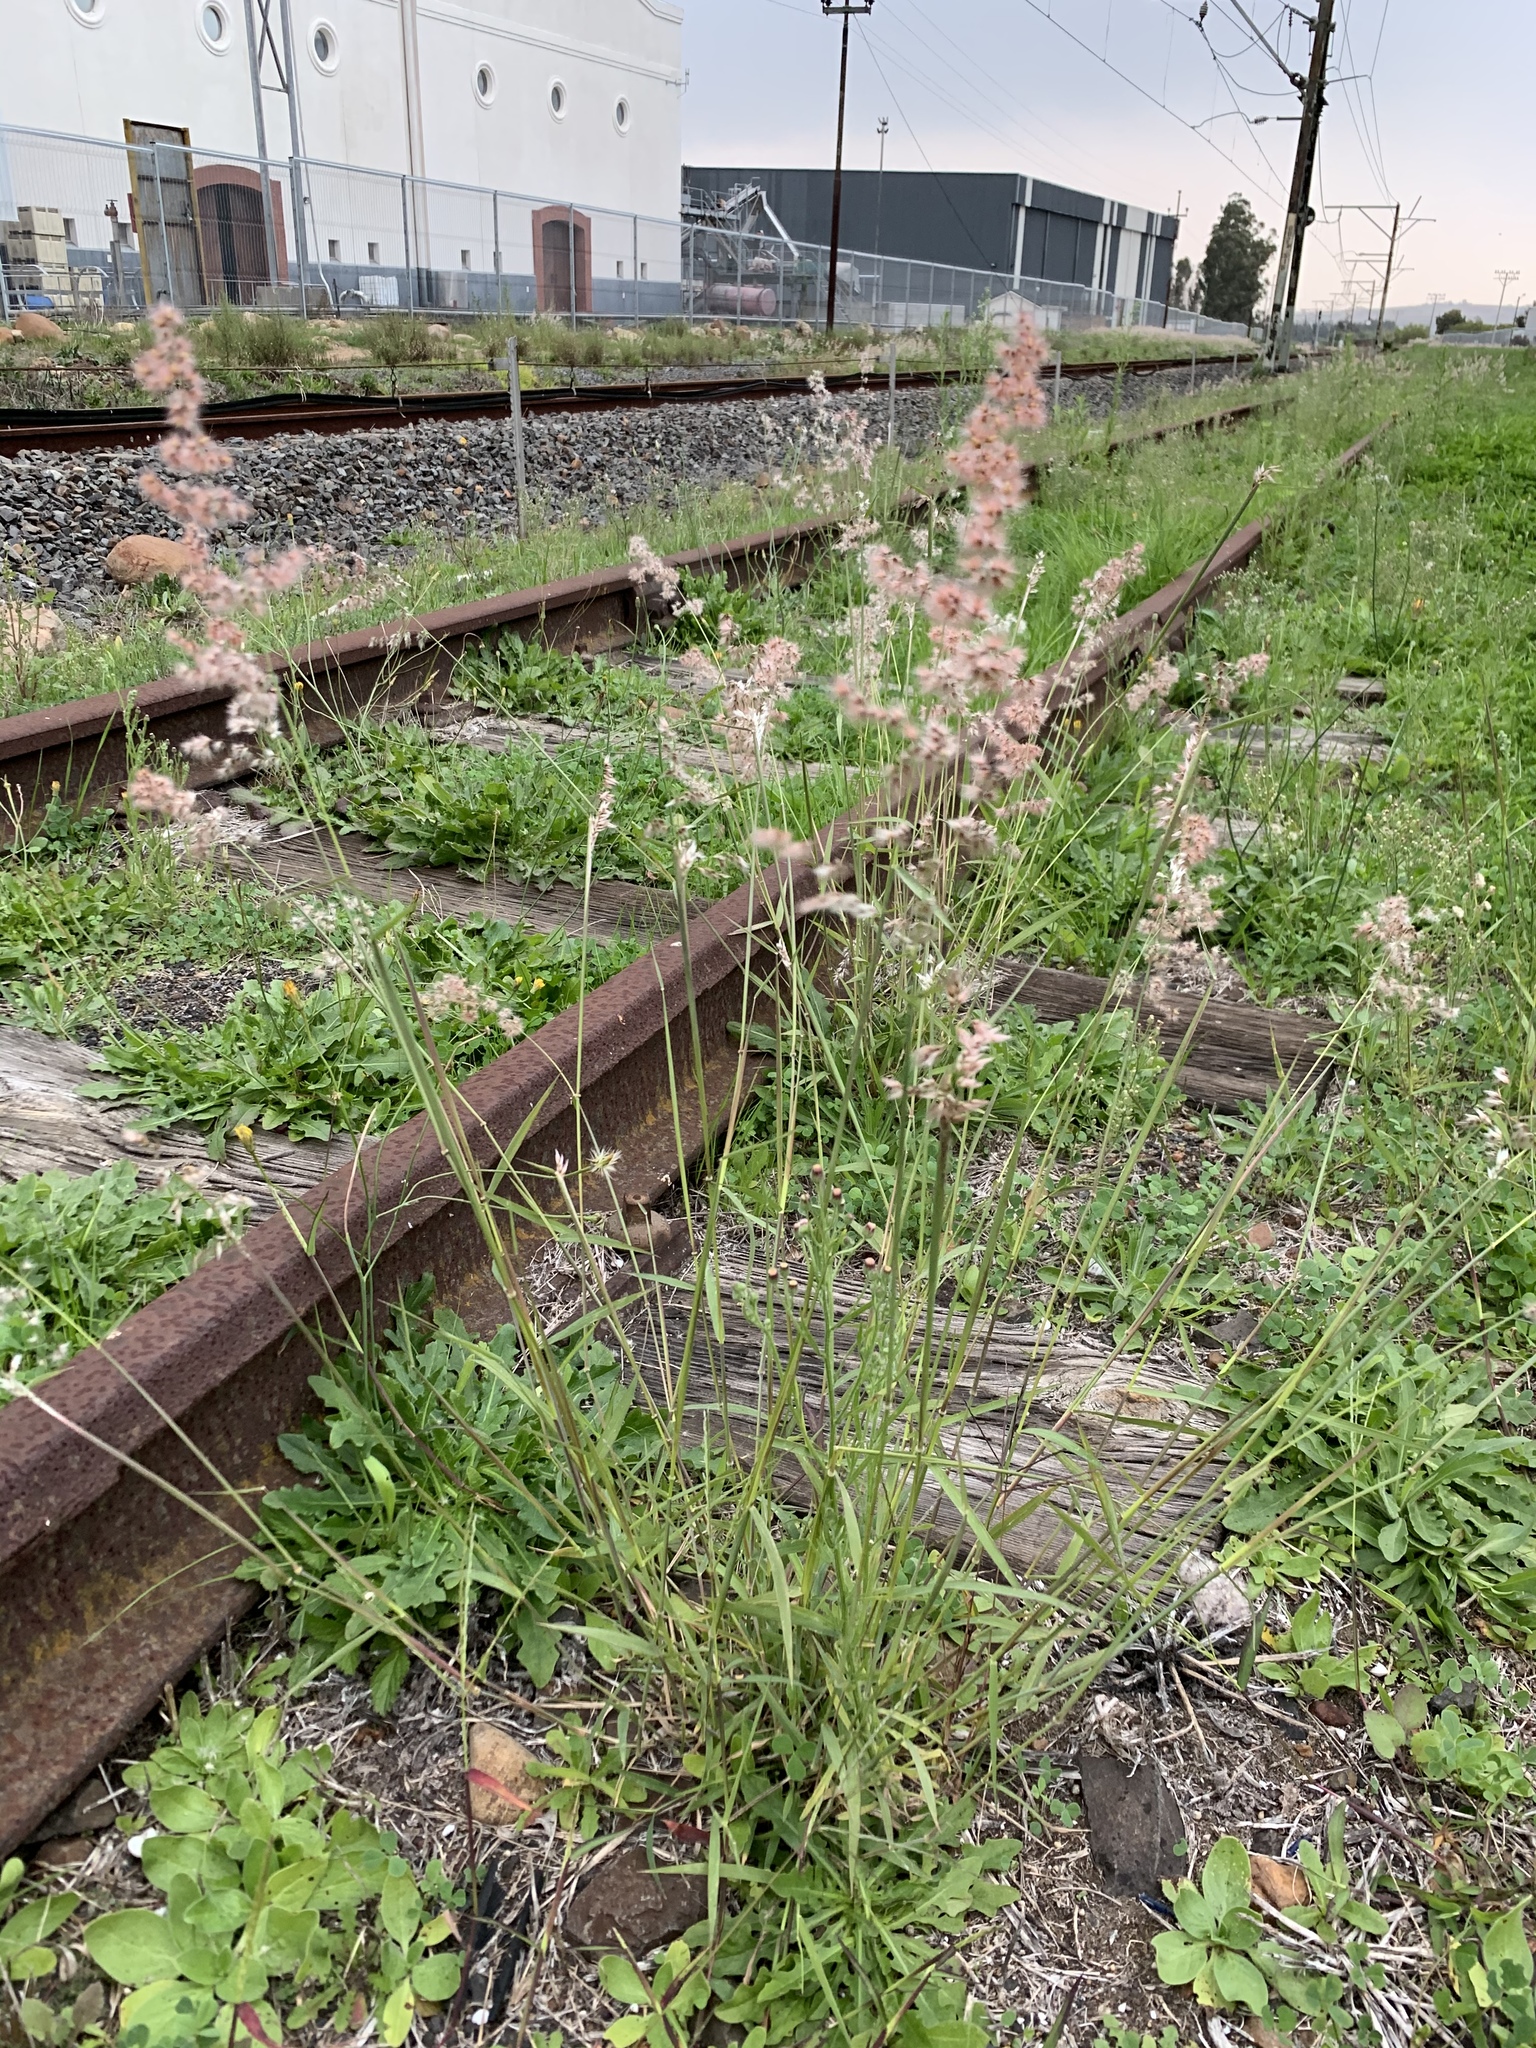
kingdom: Plantae
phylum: Tracheophyta
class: Liliopsida
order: Poales
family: Poaceae
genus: Melinis
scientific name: Melinis repens
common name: Rose natal grass
